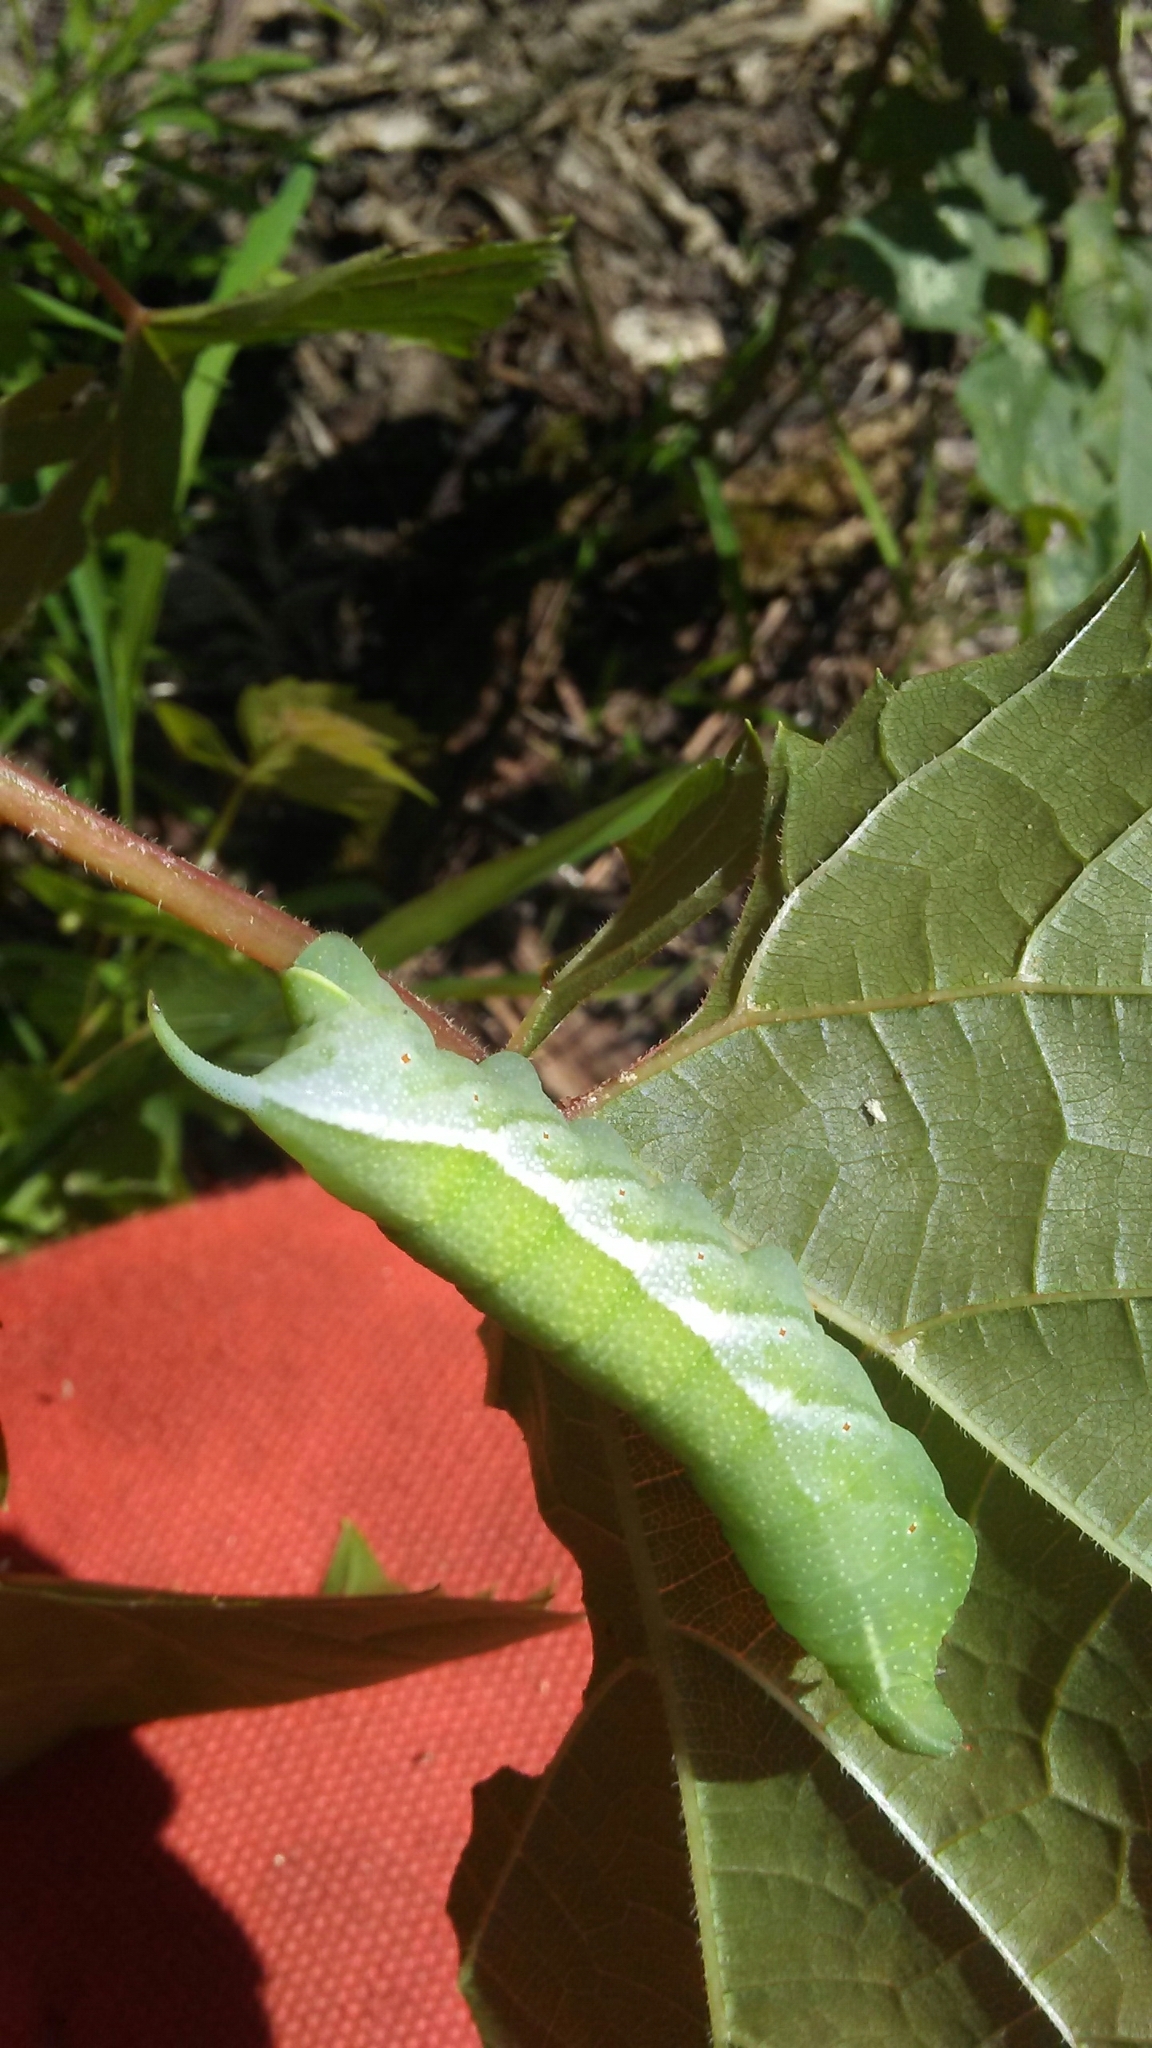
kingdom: Animalia
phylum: Arthropoda
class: Insecta
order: Lepidoptera
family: Sphingidae
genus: Darapsa
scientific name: Darapsa myron
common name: Hog sphinx
